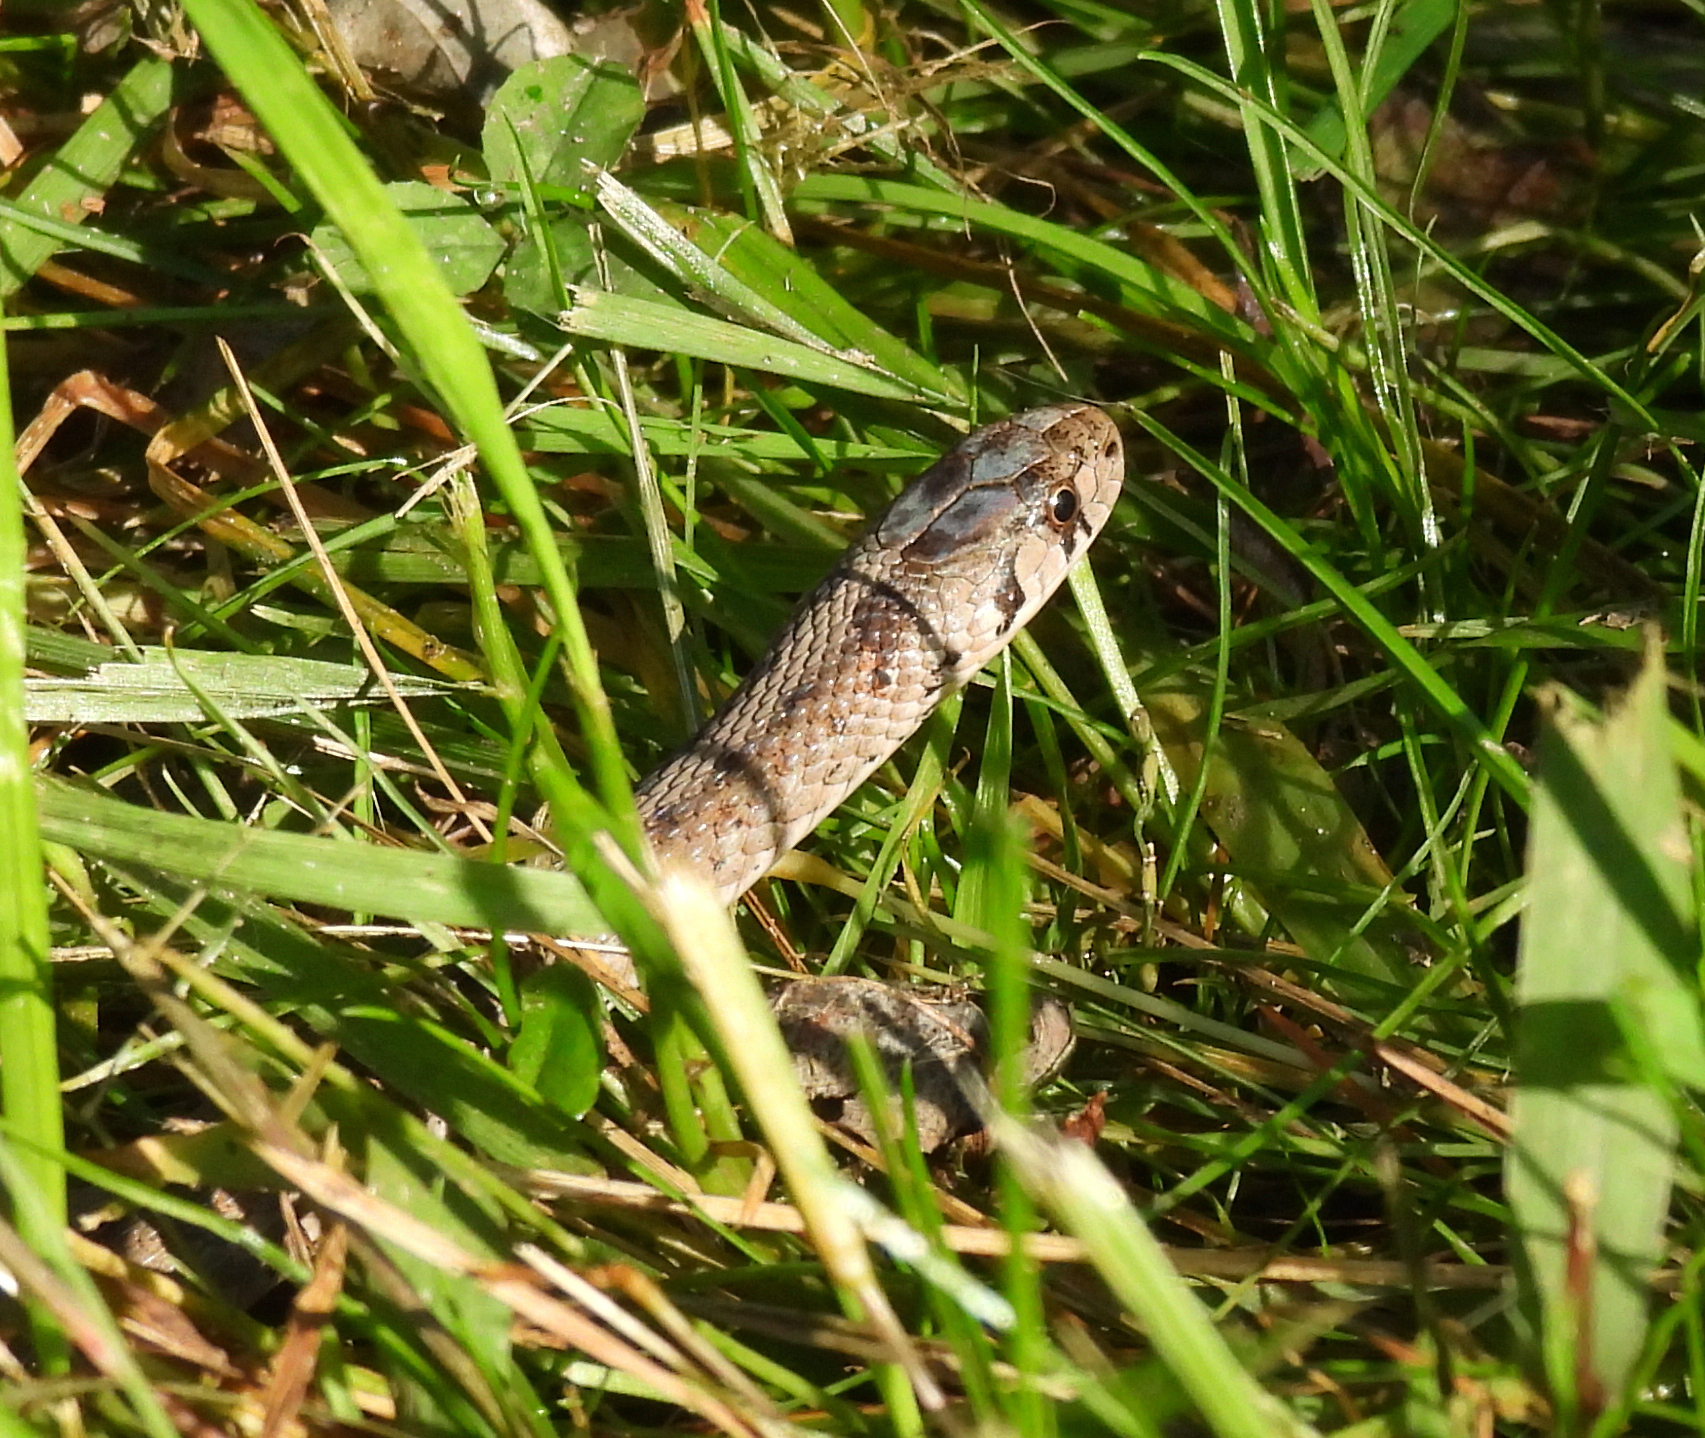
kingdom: Animalia
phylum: Chordata
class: Squamata
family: Colubridae
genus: Storeria
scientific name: Storeria dekayi
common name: (dekay’s) brown snake
